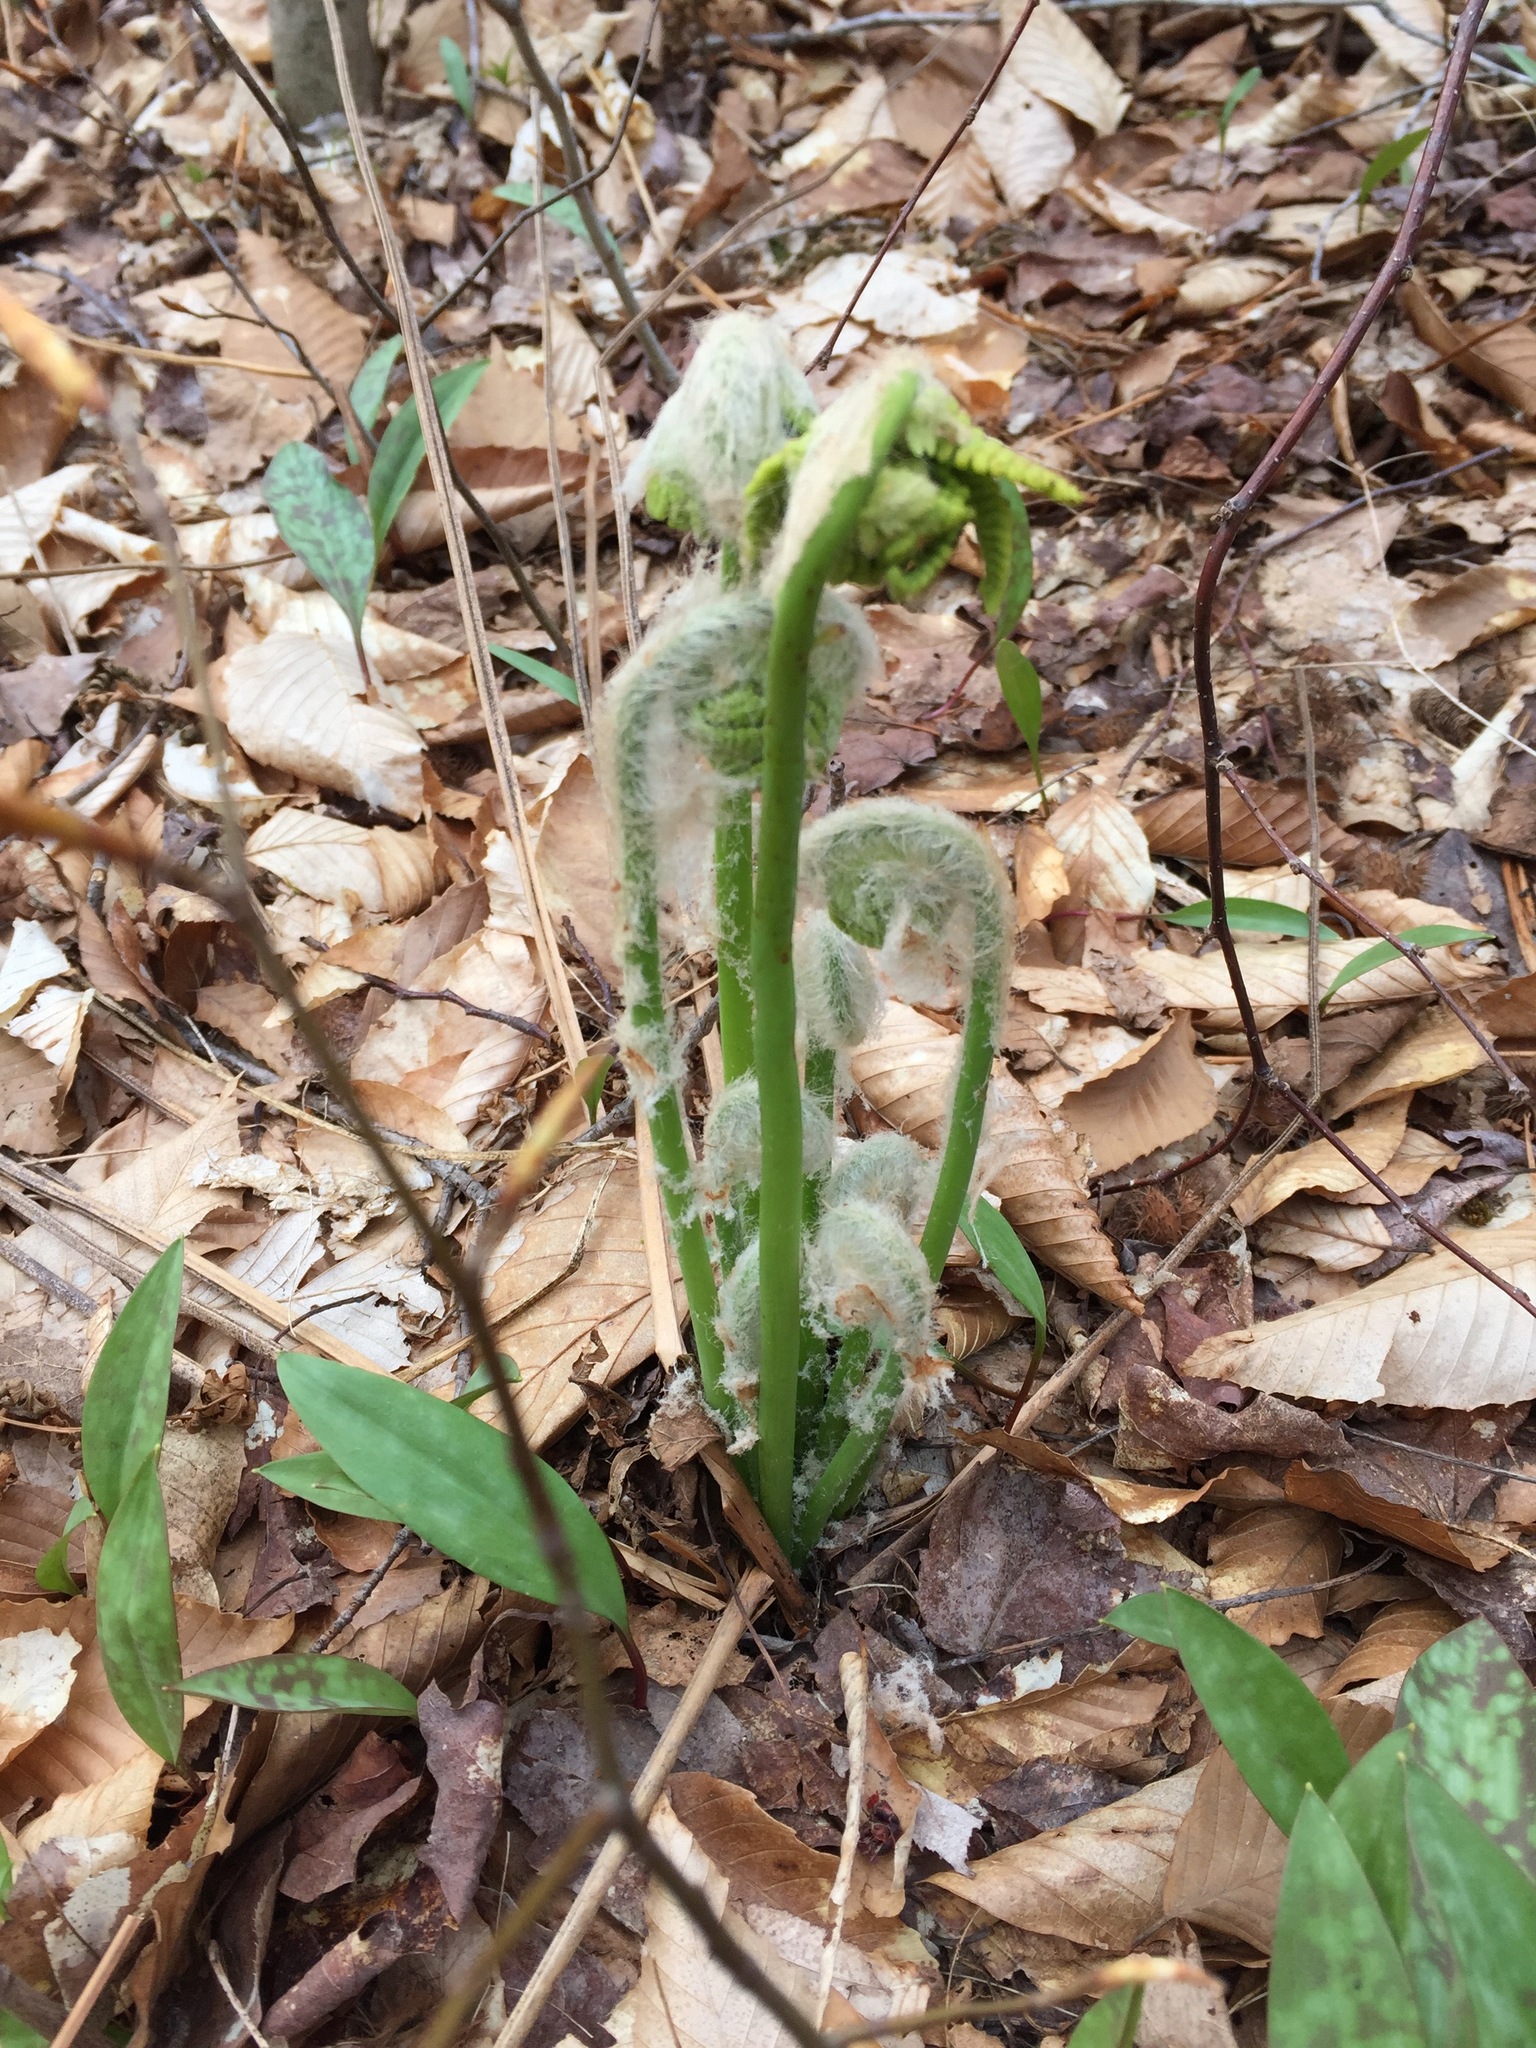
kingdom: Plantae
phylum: Tracheophyta
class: Polypodiopsida
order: Osmundales
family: Osmundaceae
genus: Claytosmunda
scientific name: Claytosmunda claytoniana
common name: Clayton's fern
